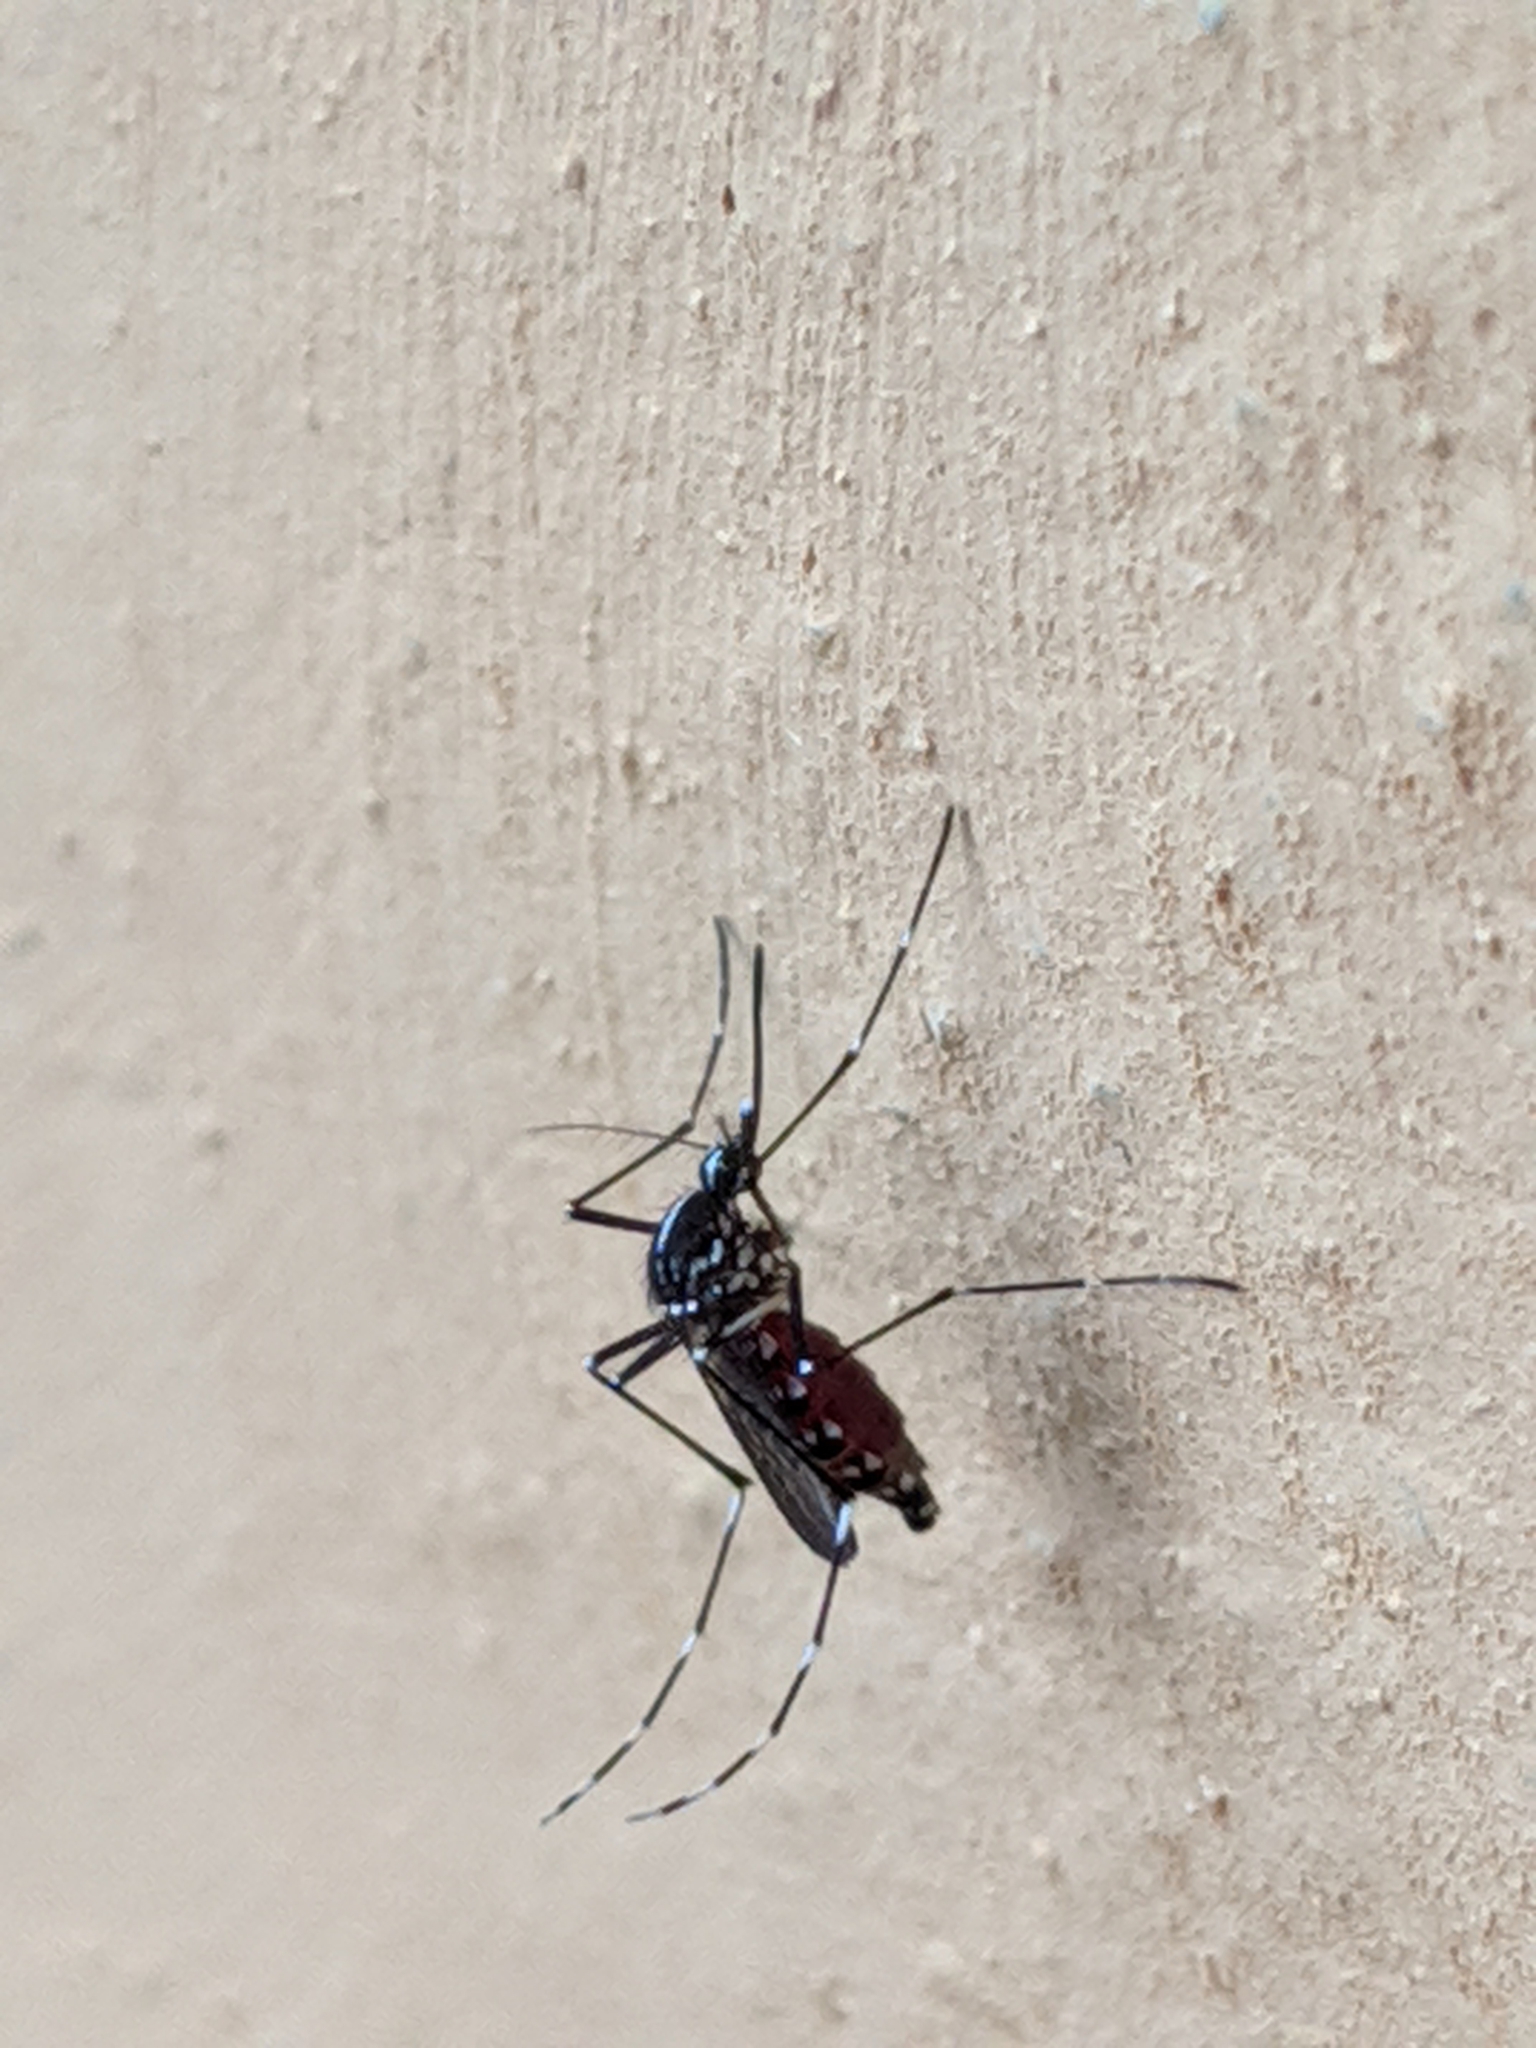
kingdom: Animalia
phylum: Arthropoda
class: Insecta
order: Diptera
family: Culicidae
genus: Aedes
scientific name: Aedes albopictus
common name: Tiger mosquito
